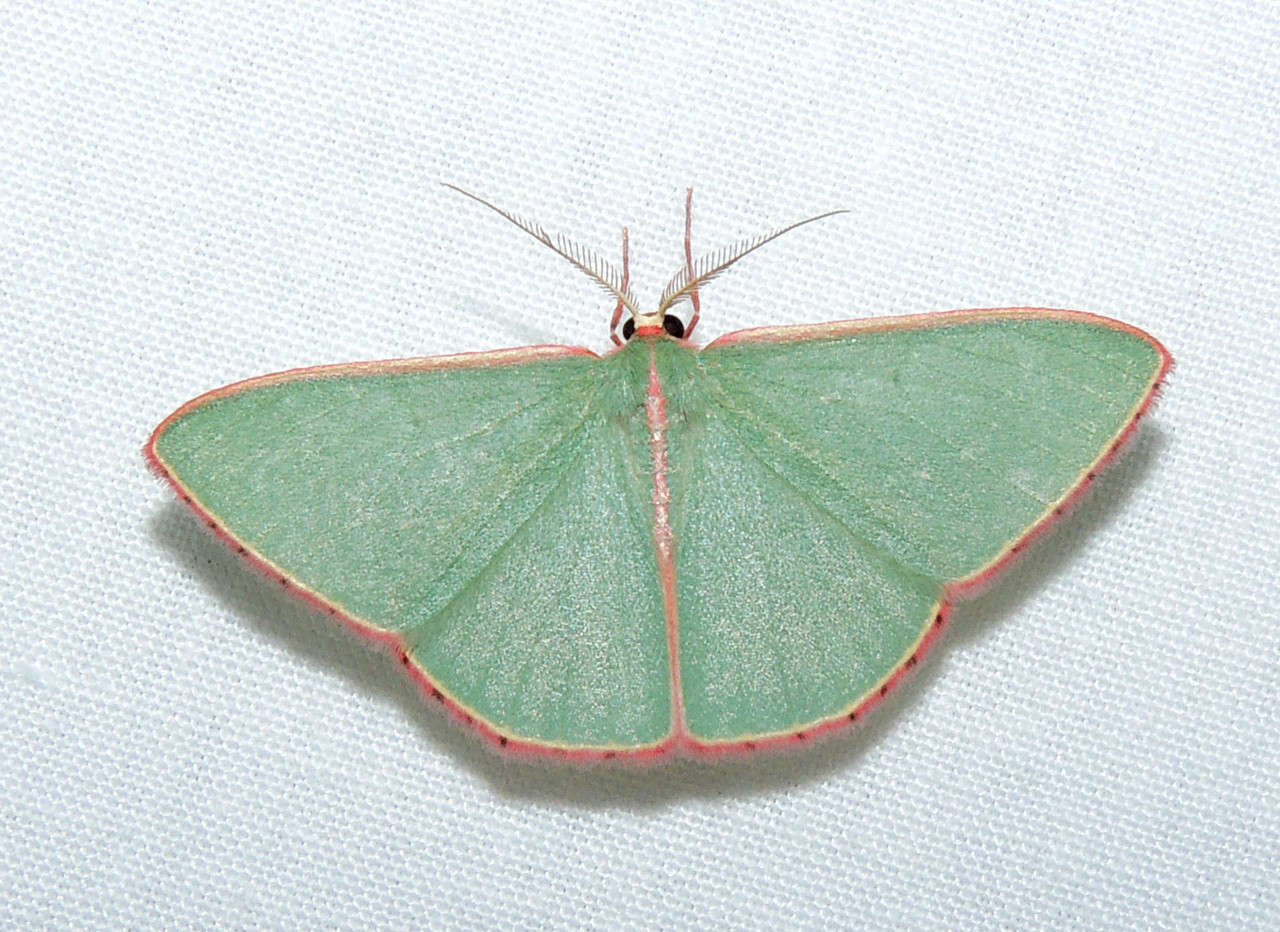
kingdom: Animalia
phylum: Arthropoda
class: Insecta
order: Lepidoptera
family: Geometridae
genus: Chlorocoma
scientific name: Chlorocoma
